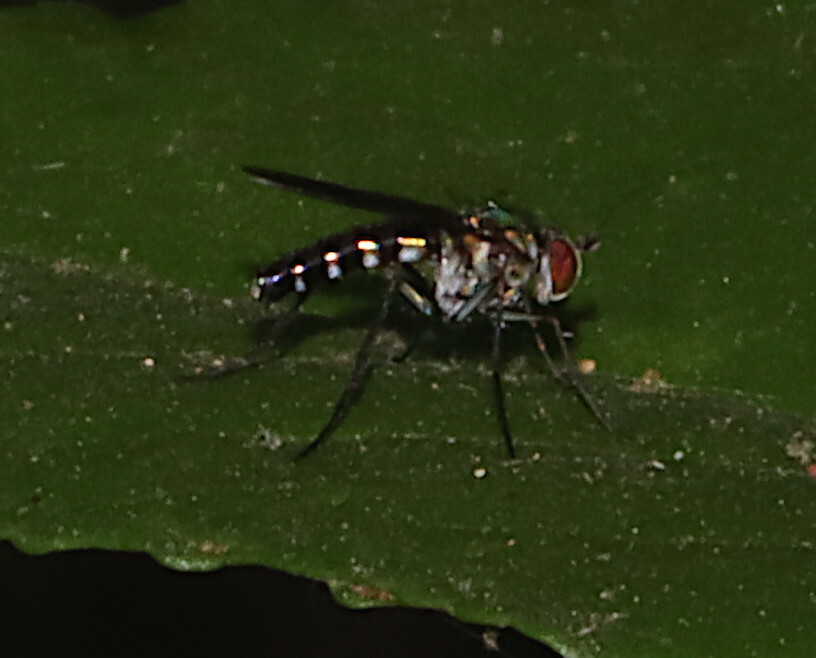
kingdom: Animalia
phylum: Arthropoda
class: Insecta
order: Diptera
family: Dolichopodidae
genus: Plagioneurus
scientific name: Plagioneurus univittatus
